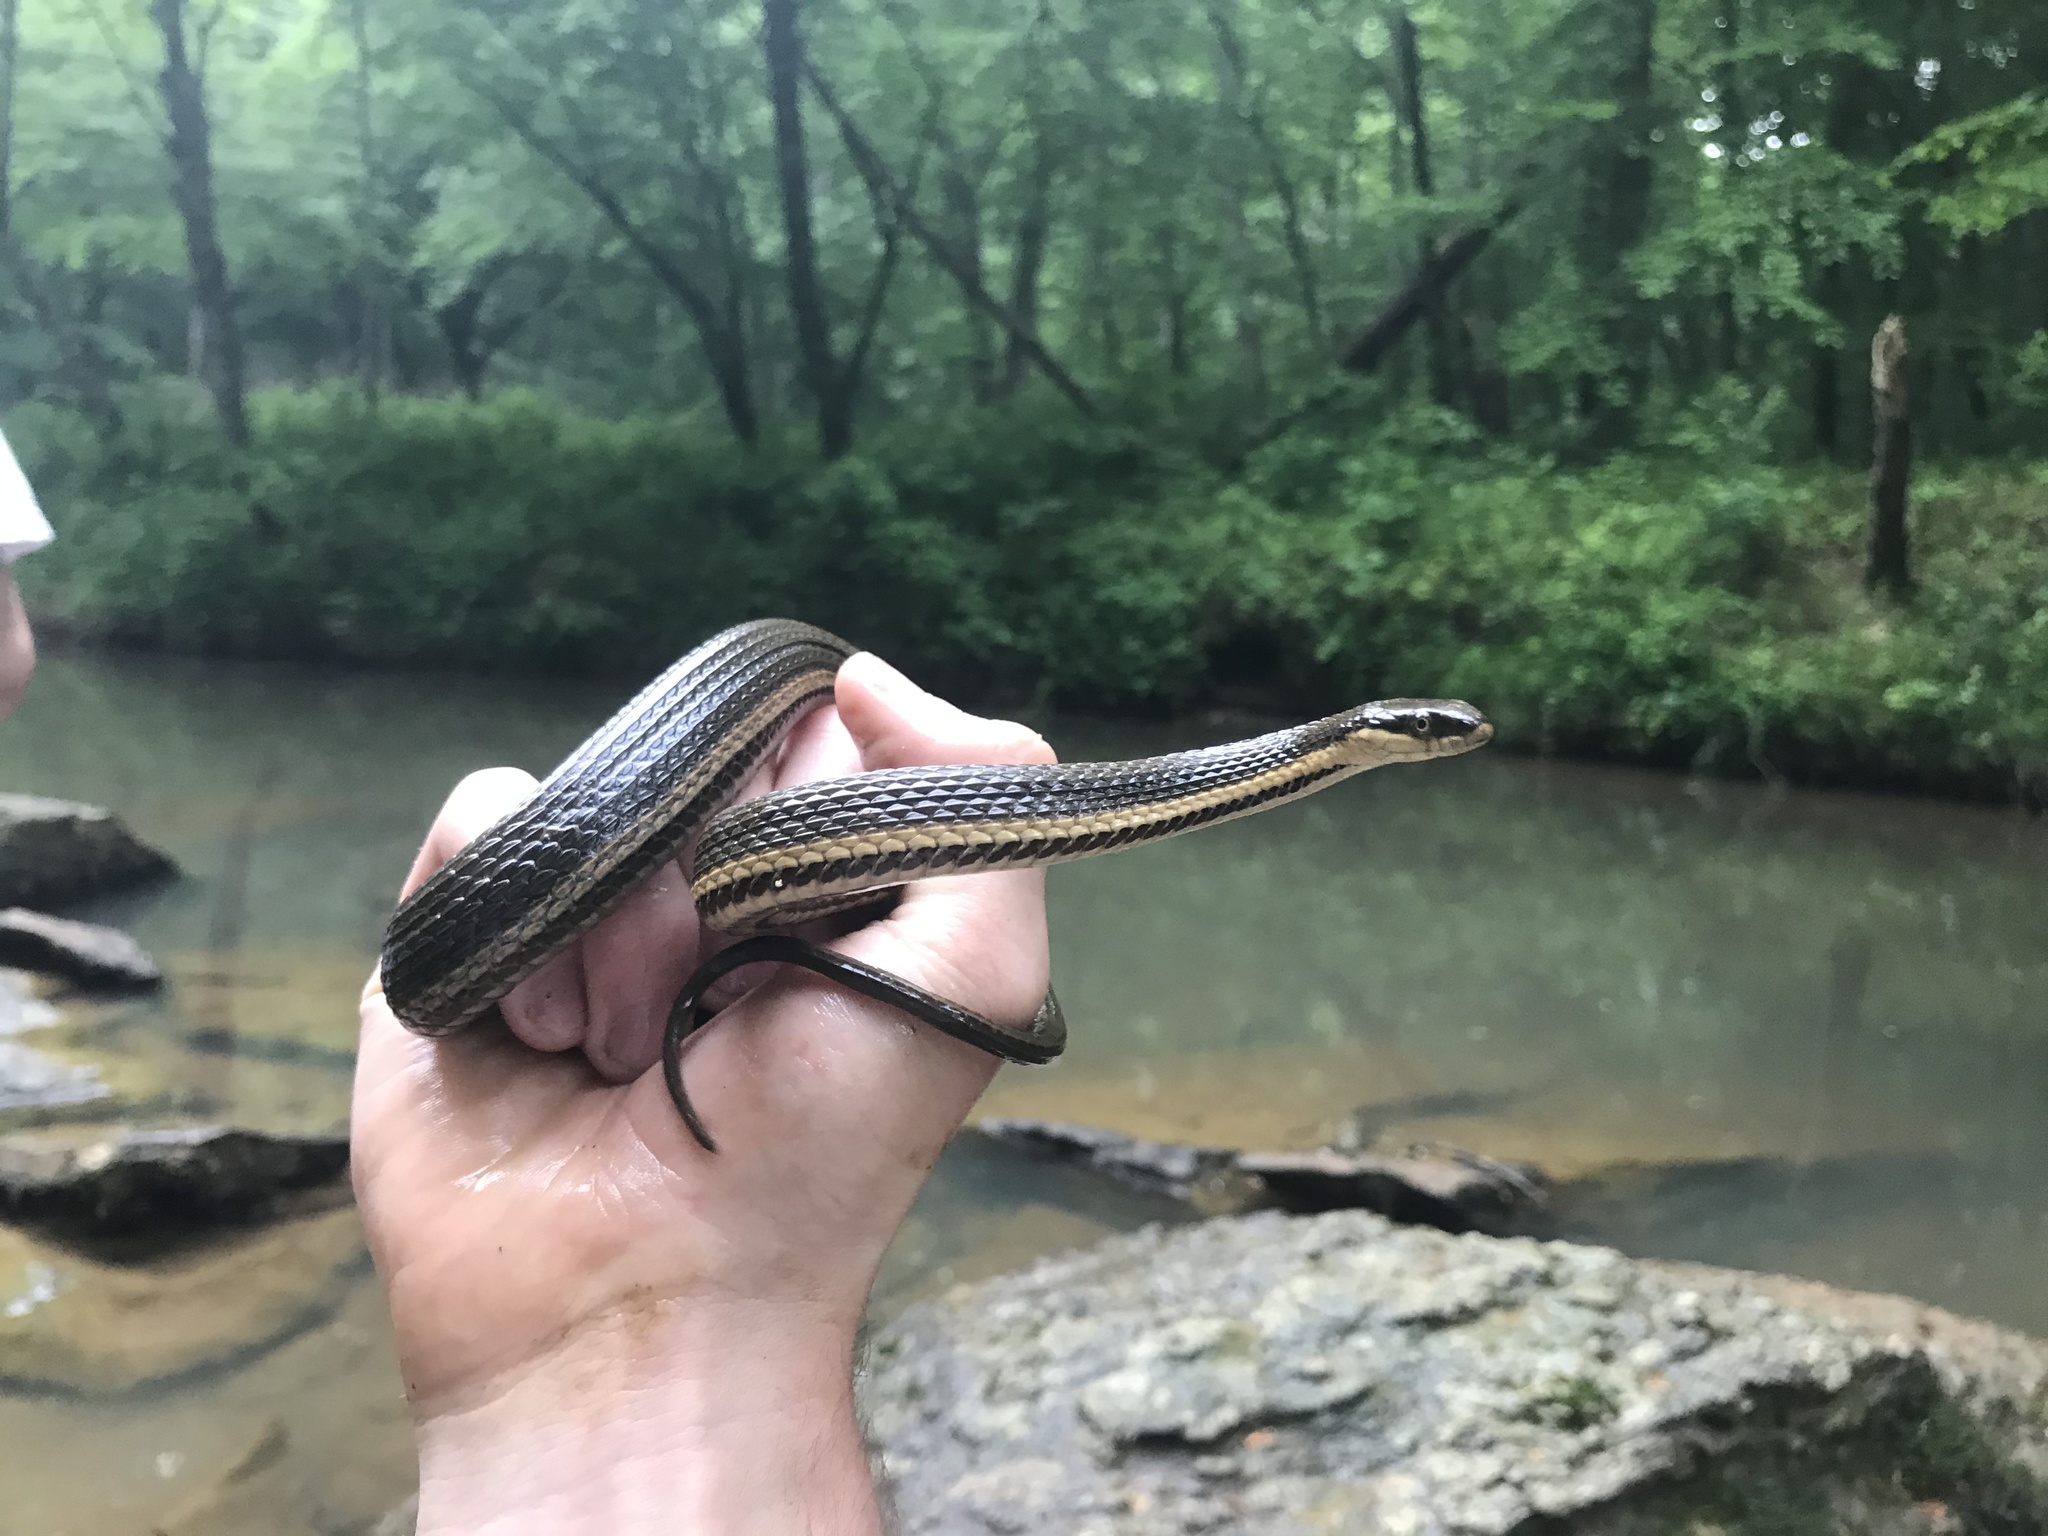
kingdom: Animalia
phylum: Chordata
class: Squamata
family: Colubridae
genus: Regina
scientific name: Regina septemvittata
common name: Queen snake
